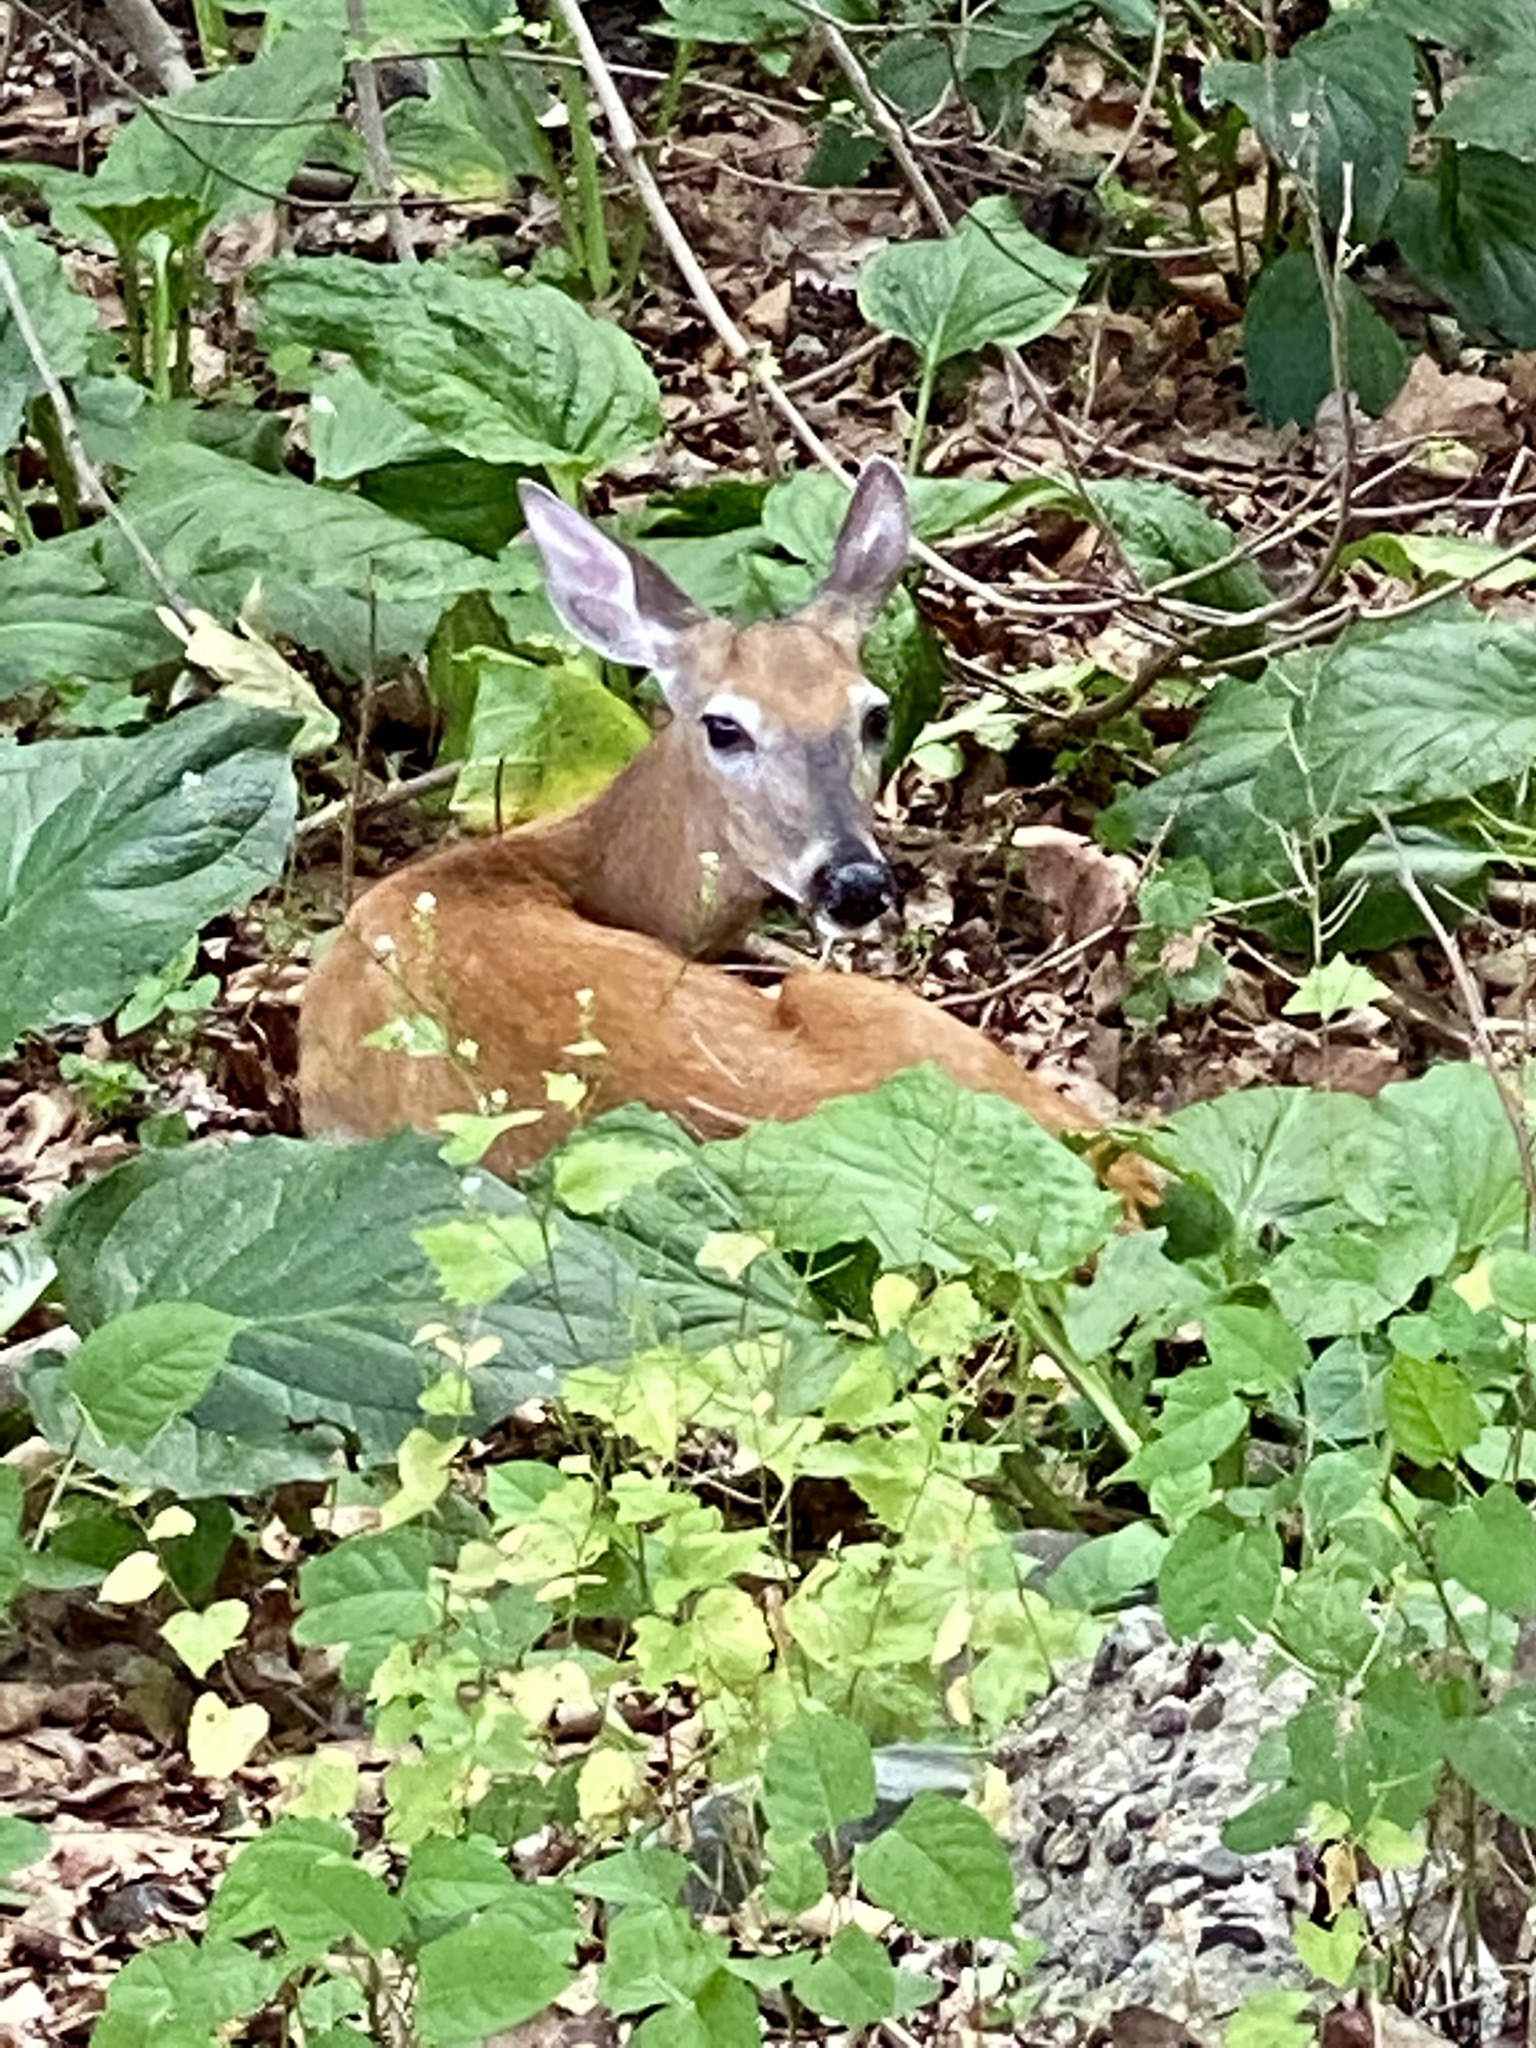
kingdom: Animalia
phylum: Chordata
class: Mammalia
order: Artiodactyla
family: Cervidae
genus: Odocoileus
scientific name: Odocoileus virginianus
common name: White-tailed deer
